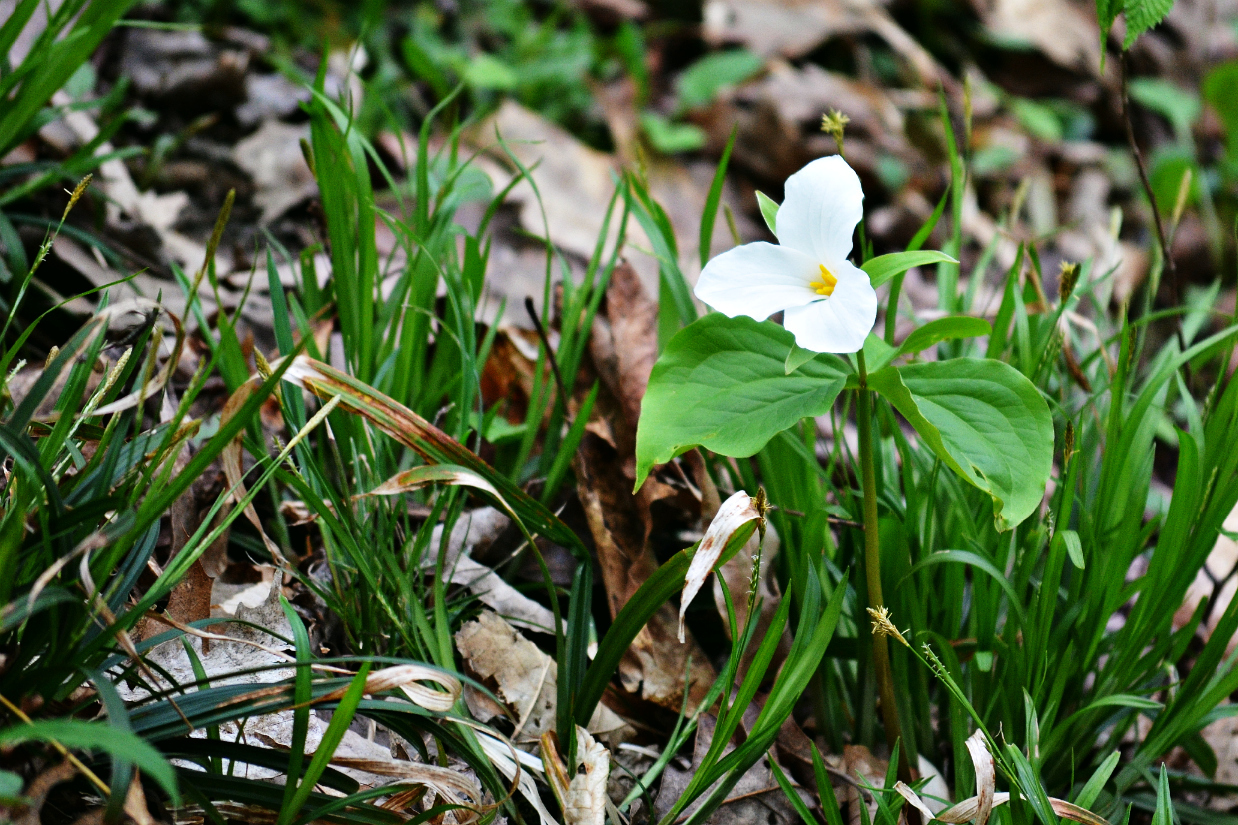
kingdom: Plantae
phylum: Tracheophyta
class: Liliopsida
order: Liliales
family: Melanthiaceae
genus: Trillium
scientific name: Trillium grandiflorum
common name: Great white trillium
